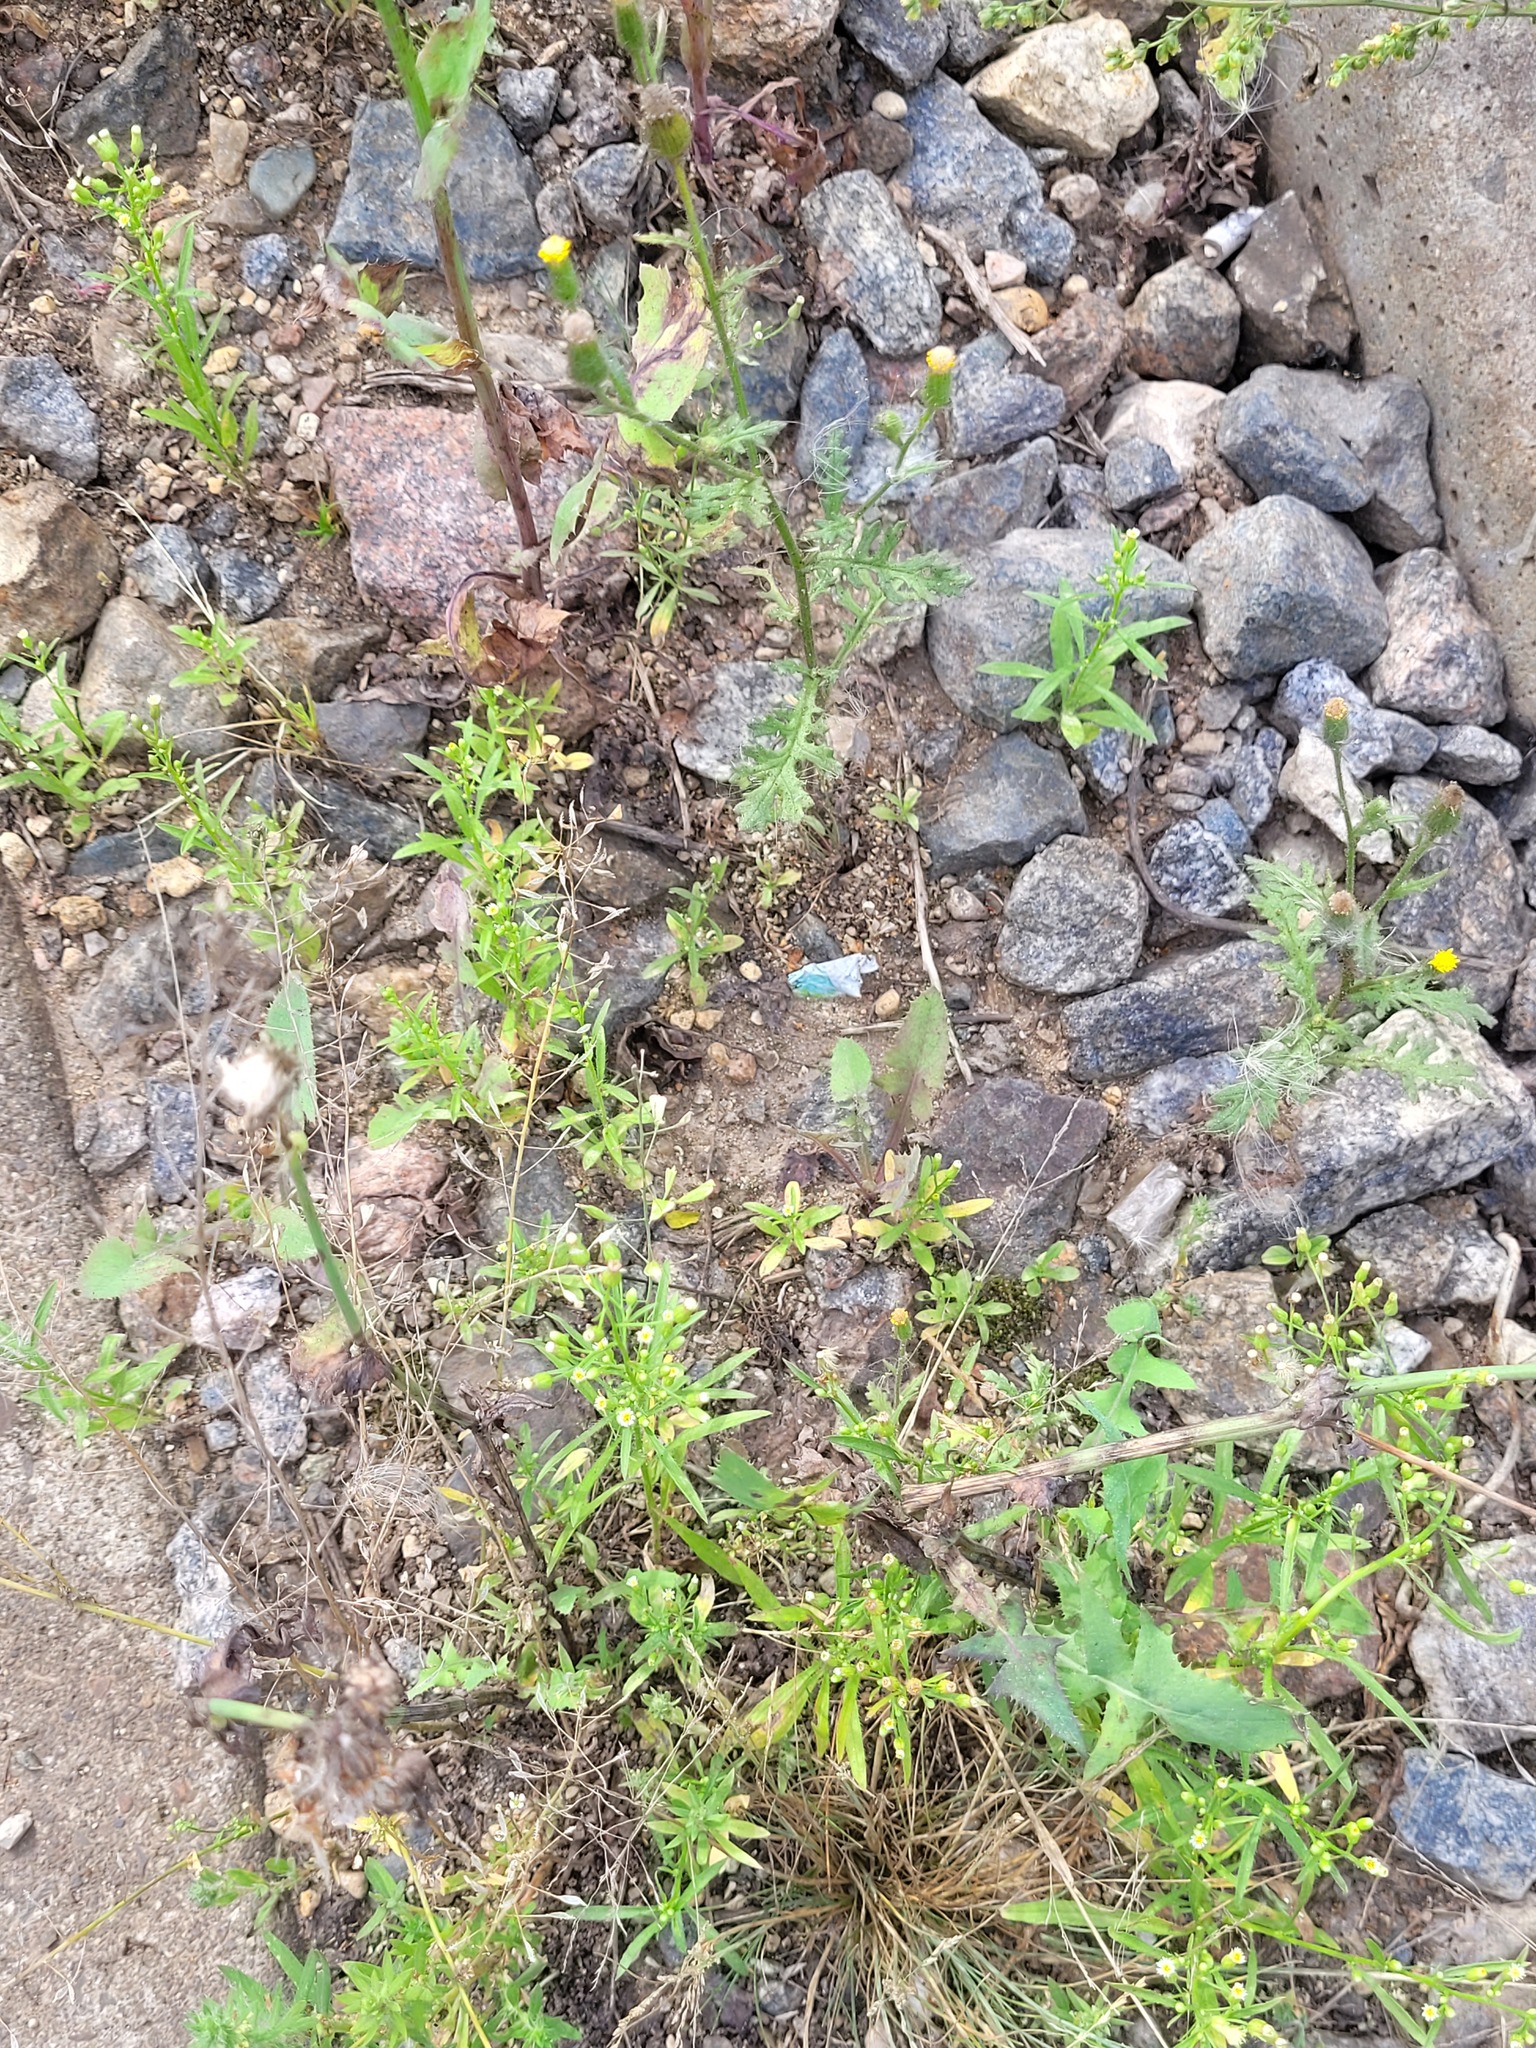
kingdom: Plantae
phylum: Tracheophyta
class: Magnoliopsida
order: Asterales
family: Asteraceae
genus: Erigeron
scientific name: Erigeron canadensis
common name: Canadian fleabane
